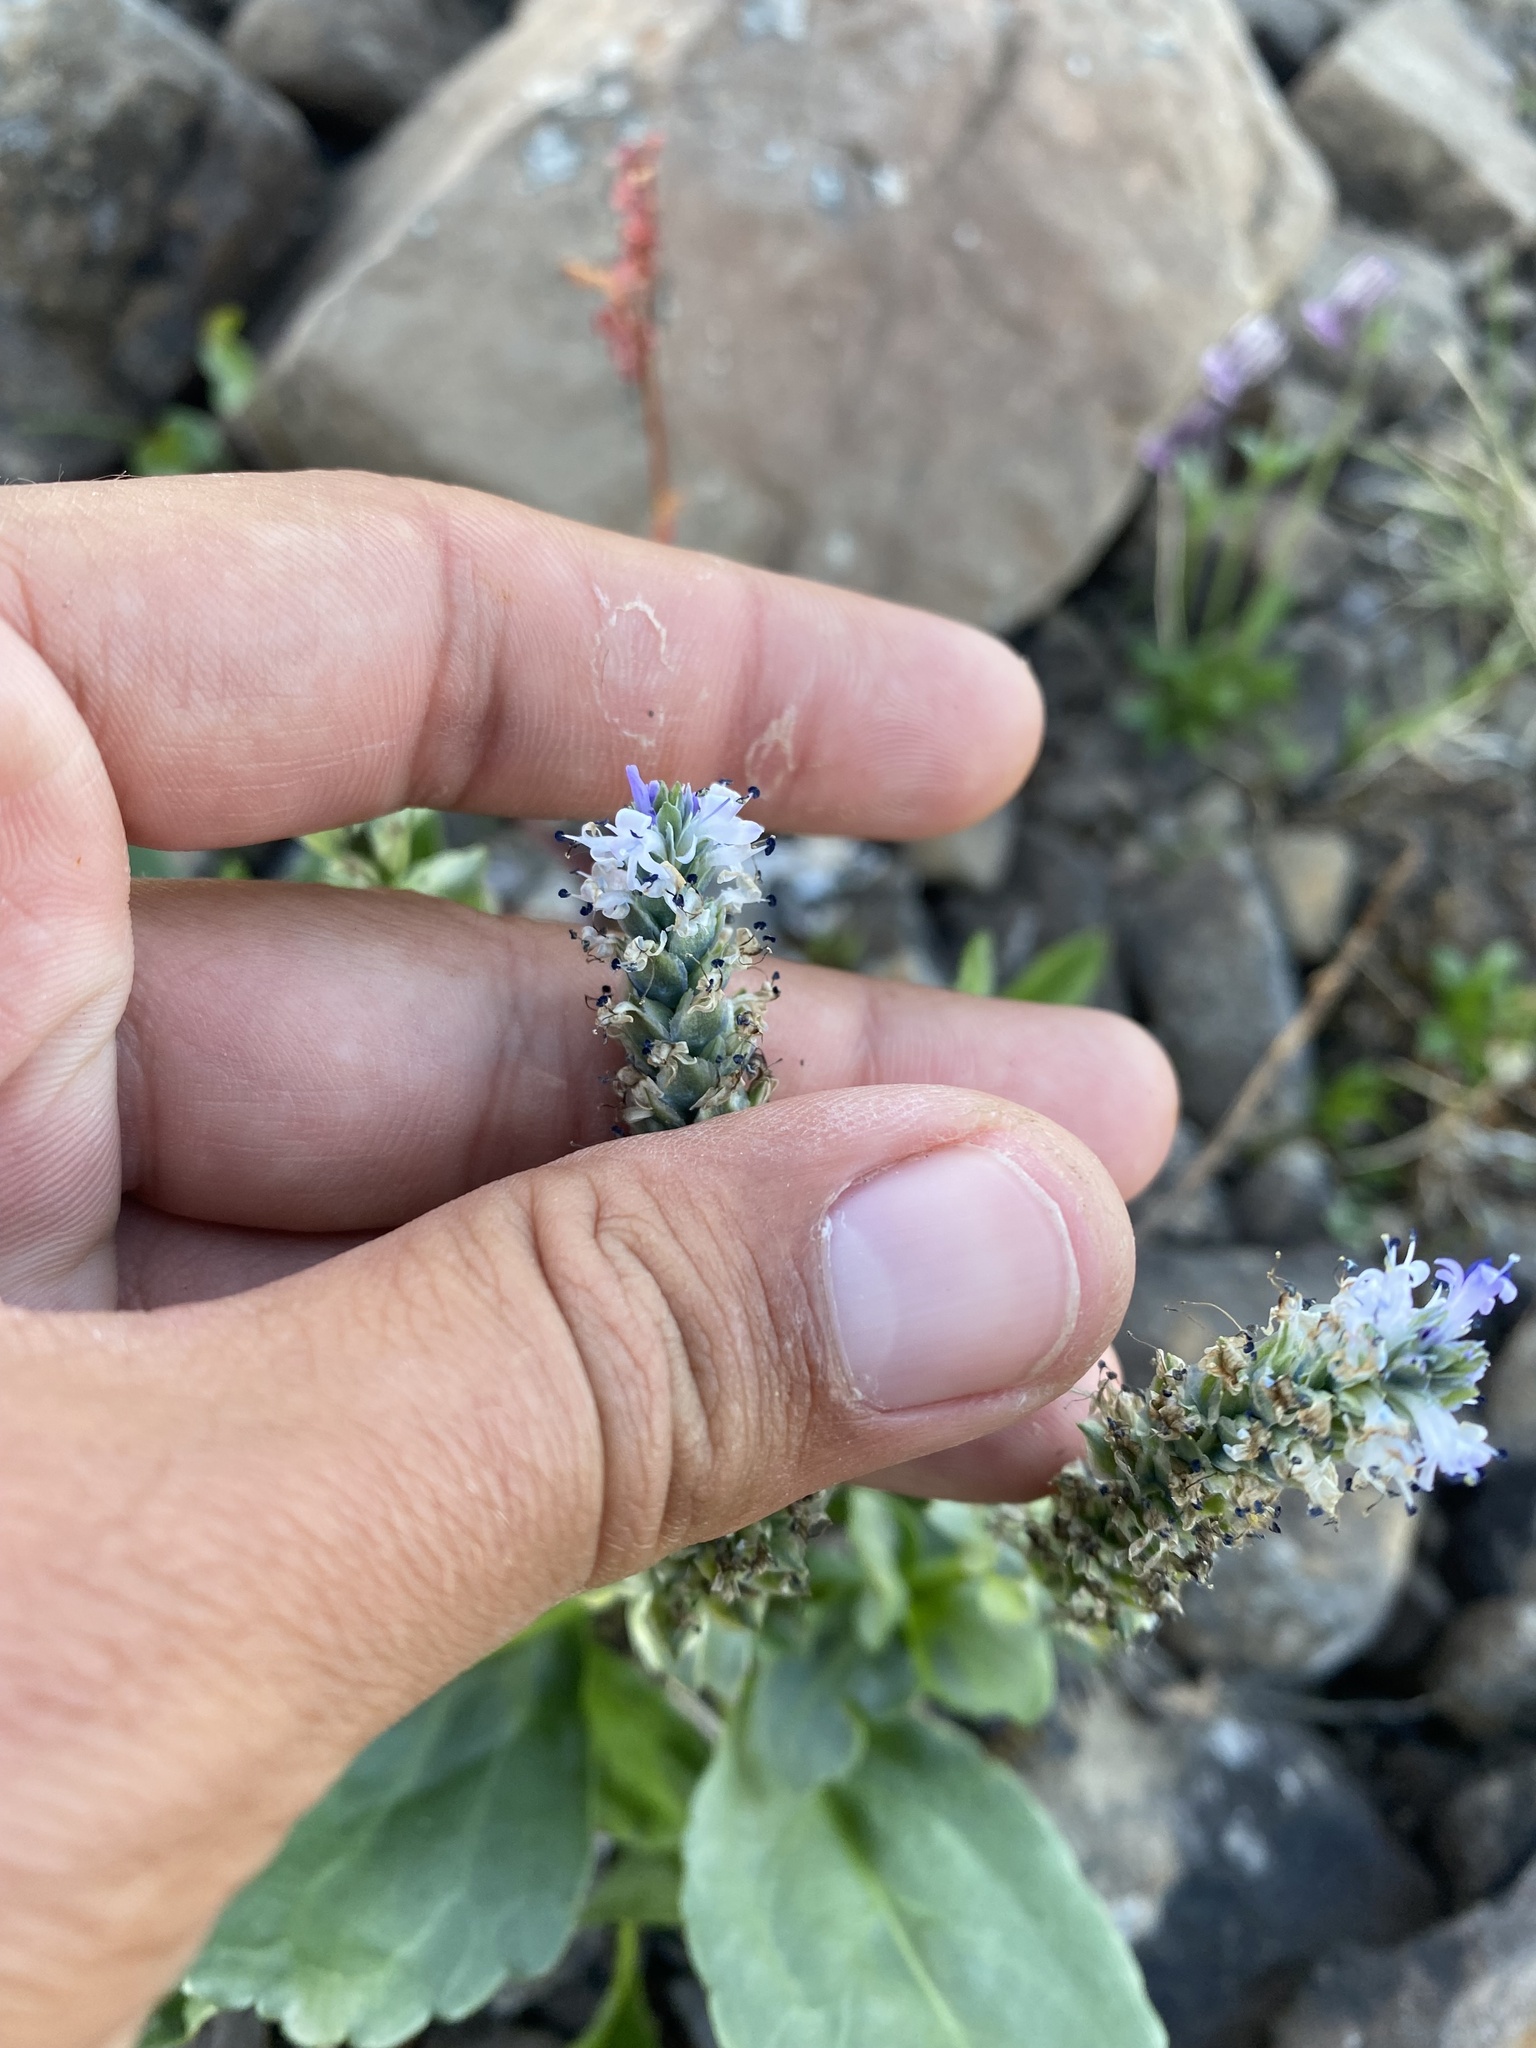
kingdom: Plantae
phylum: Tracheophyta
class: Magnoliopsida
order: Lamiales
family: Plantaginaceae
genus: Lagotis
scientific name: Lagotis glauca
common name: Glaucous weaselsnout
